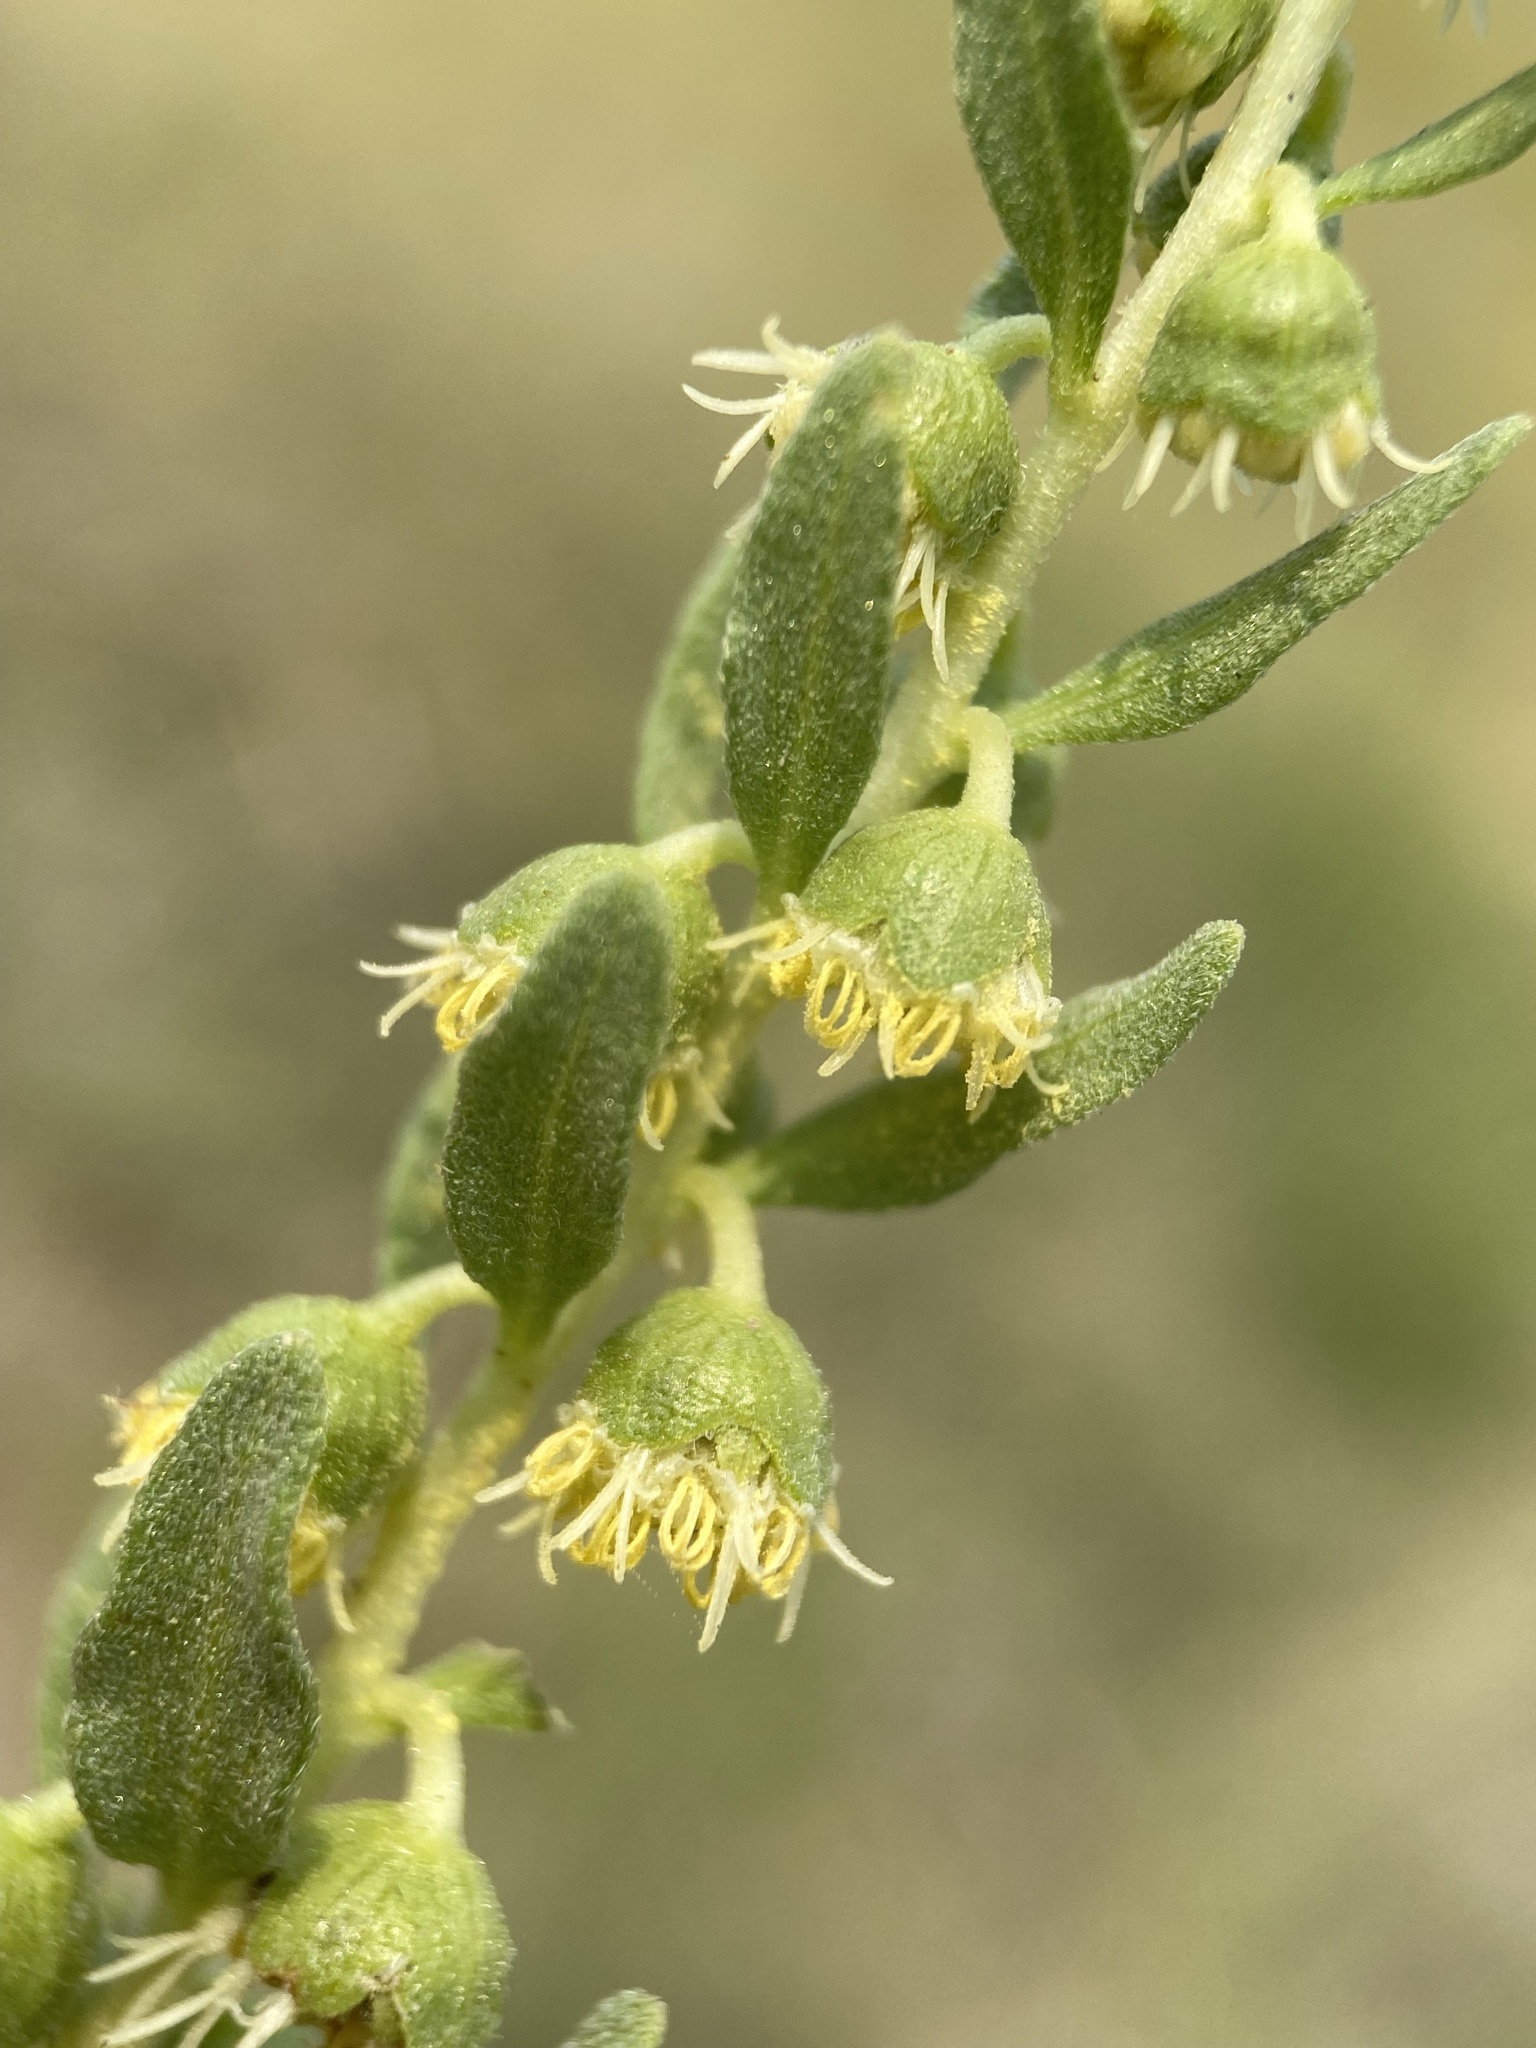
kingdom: Plantae
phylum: Tracheophyta
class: Magnoliopsida
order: Asterales
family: Asteraceae
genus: Iva
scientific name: Iva axillaris
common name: Poverty sumpweed
